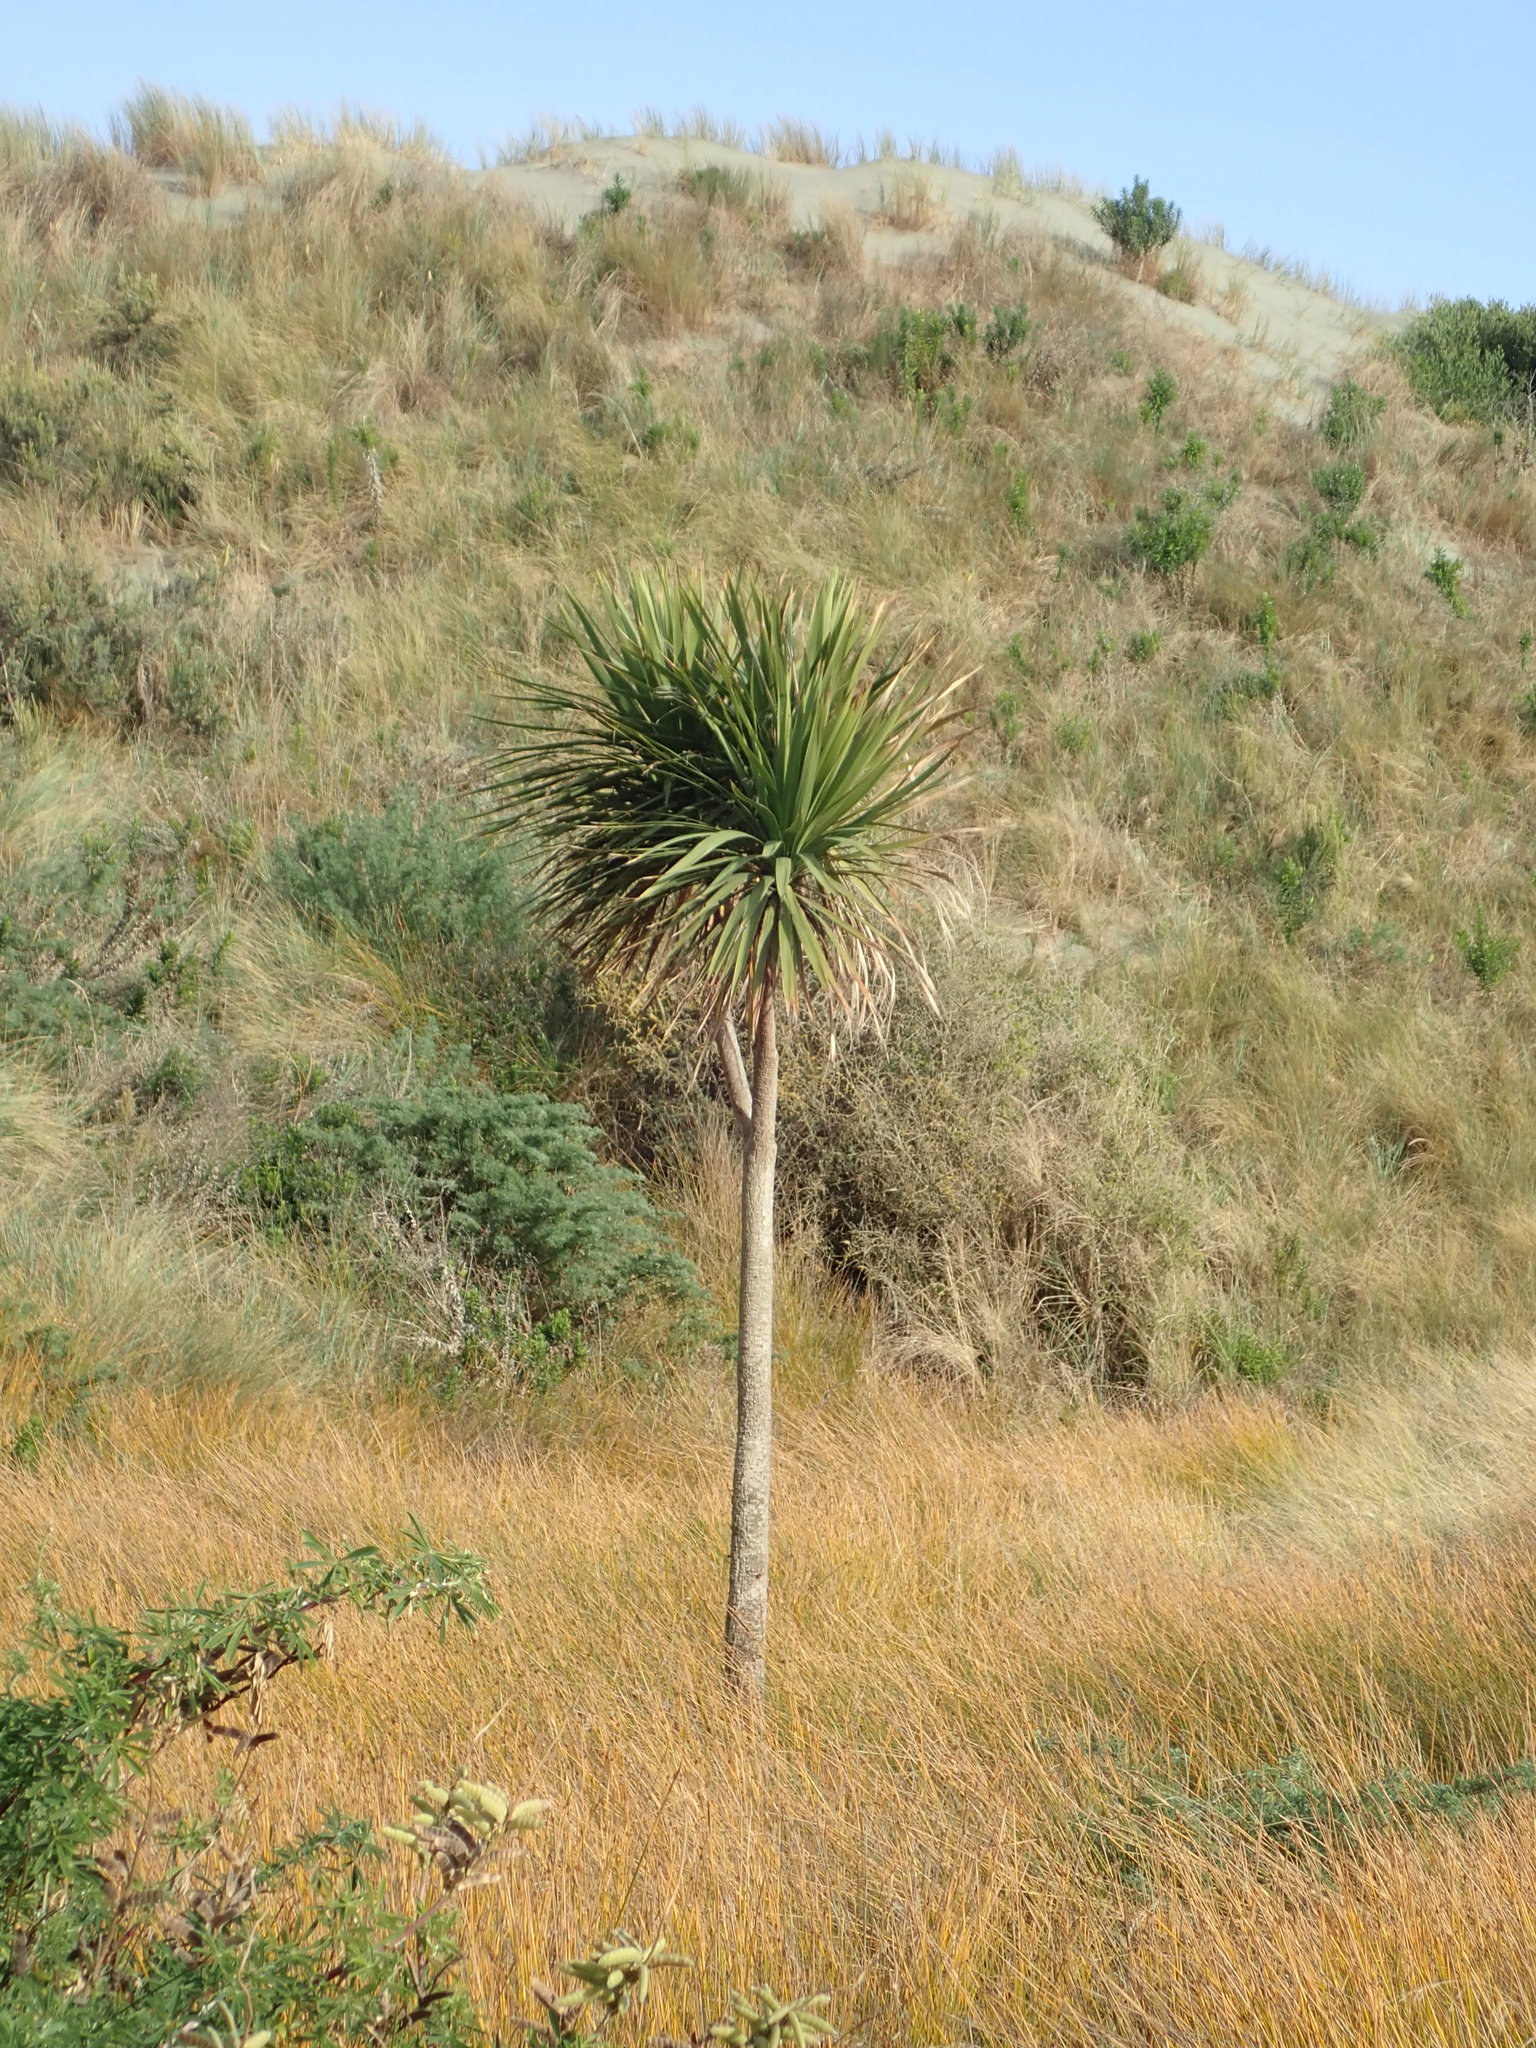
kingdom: Plantae
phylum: Tracheophyta
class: Liliopsida
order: Asparagales
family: Asparagaceae
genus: Cordyline
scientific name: Cordyline australis
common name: Cabbage-palm
